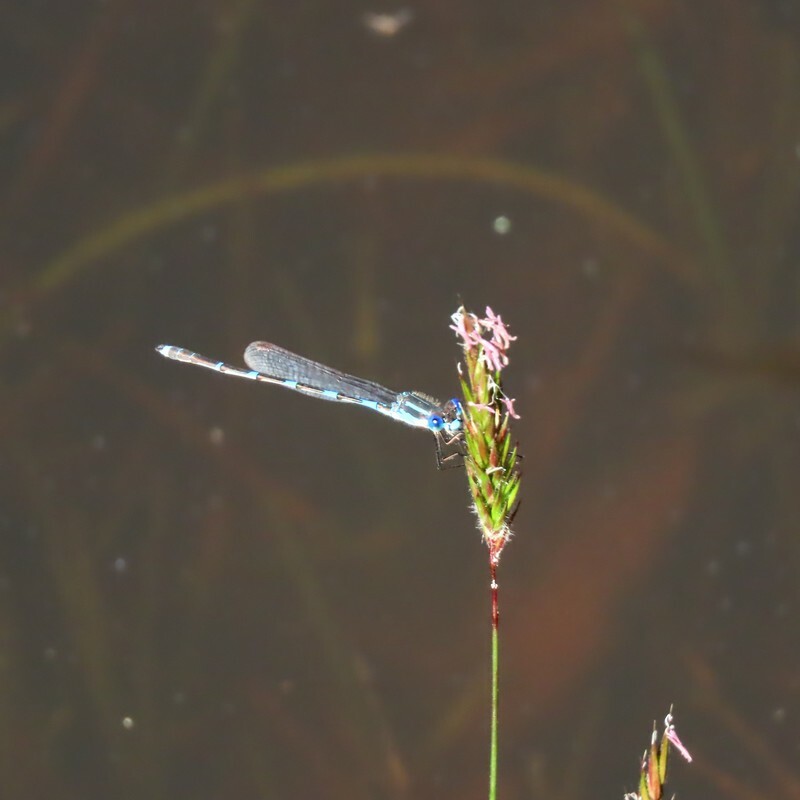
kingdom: Animalia
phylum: Arthropoda
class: Insecta
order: Odonata
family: Lestidae
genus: Austrolestes
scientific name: Austrolestes leda
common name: Wandering ringtail
